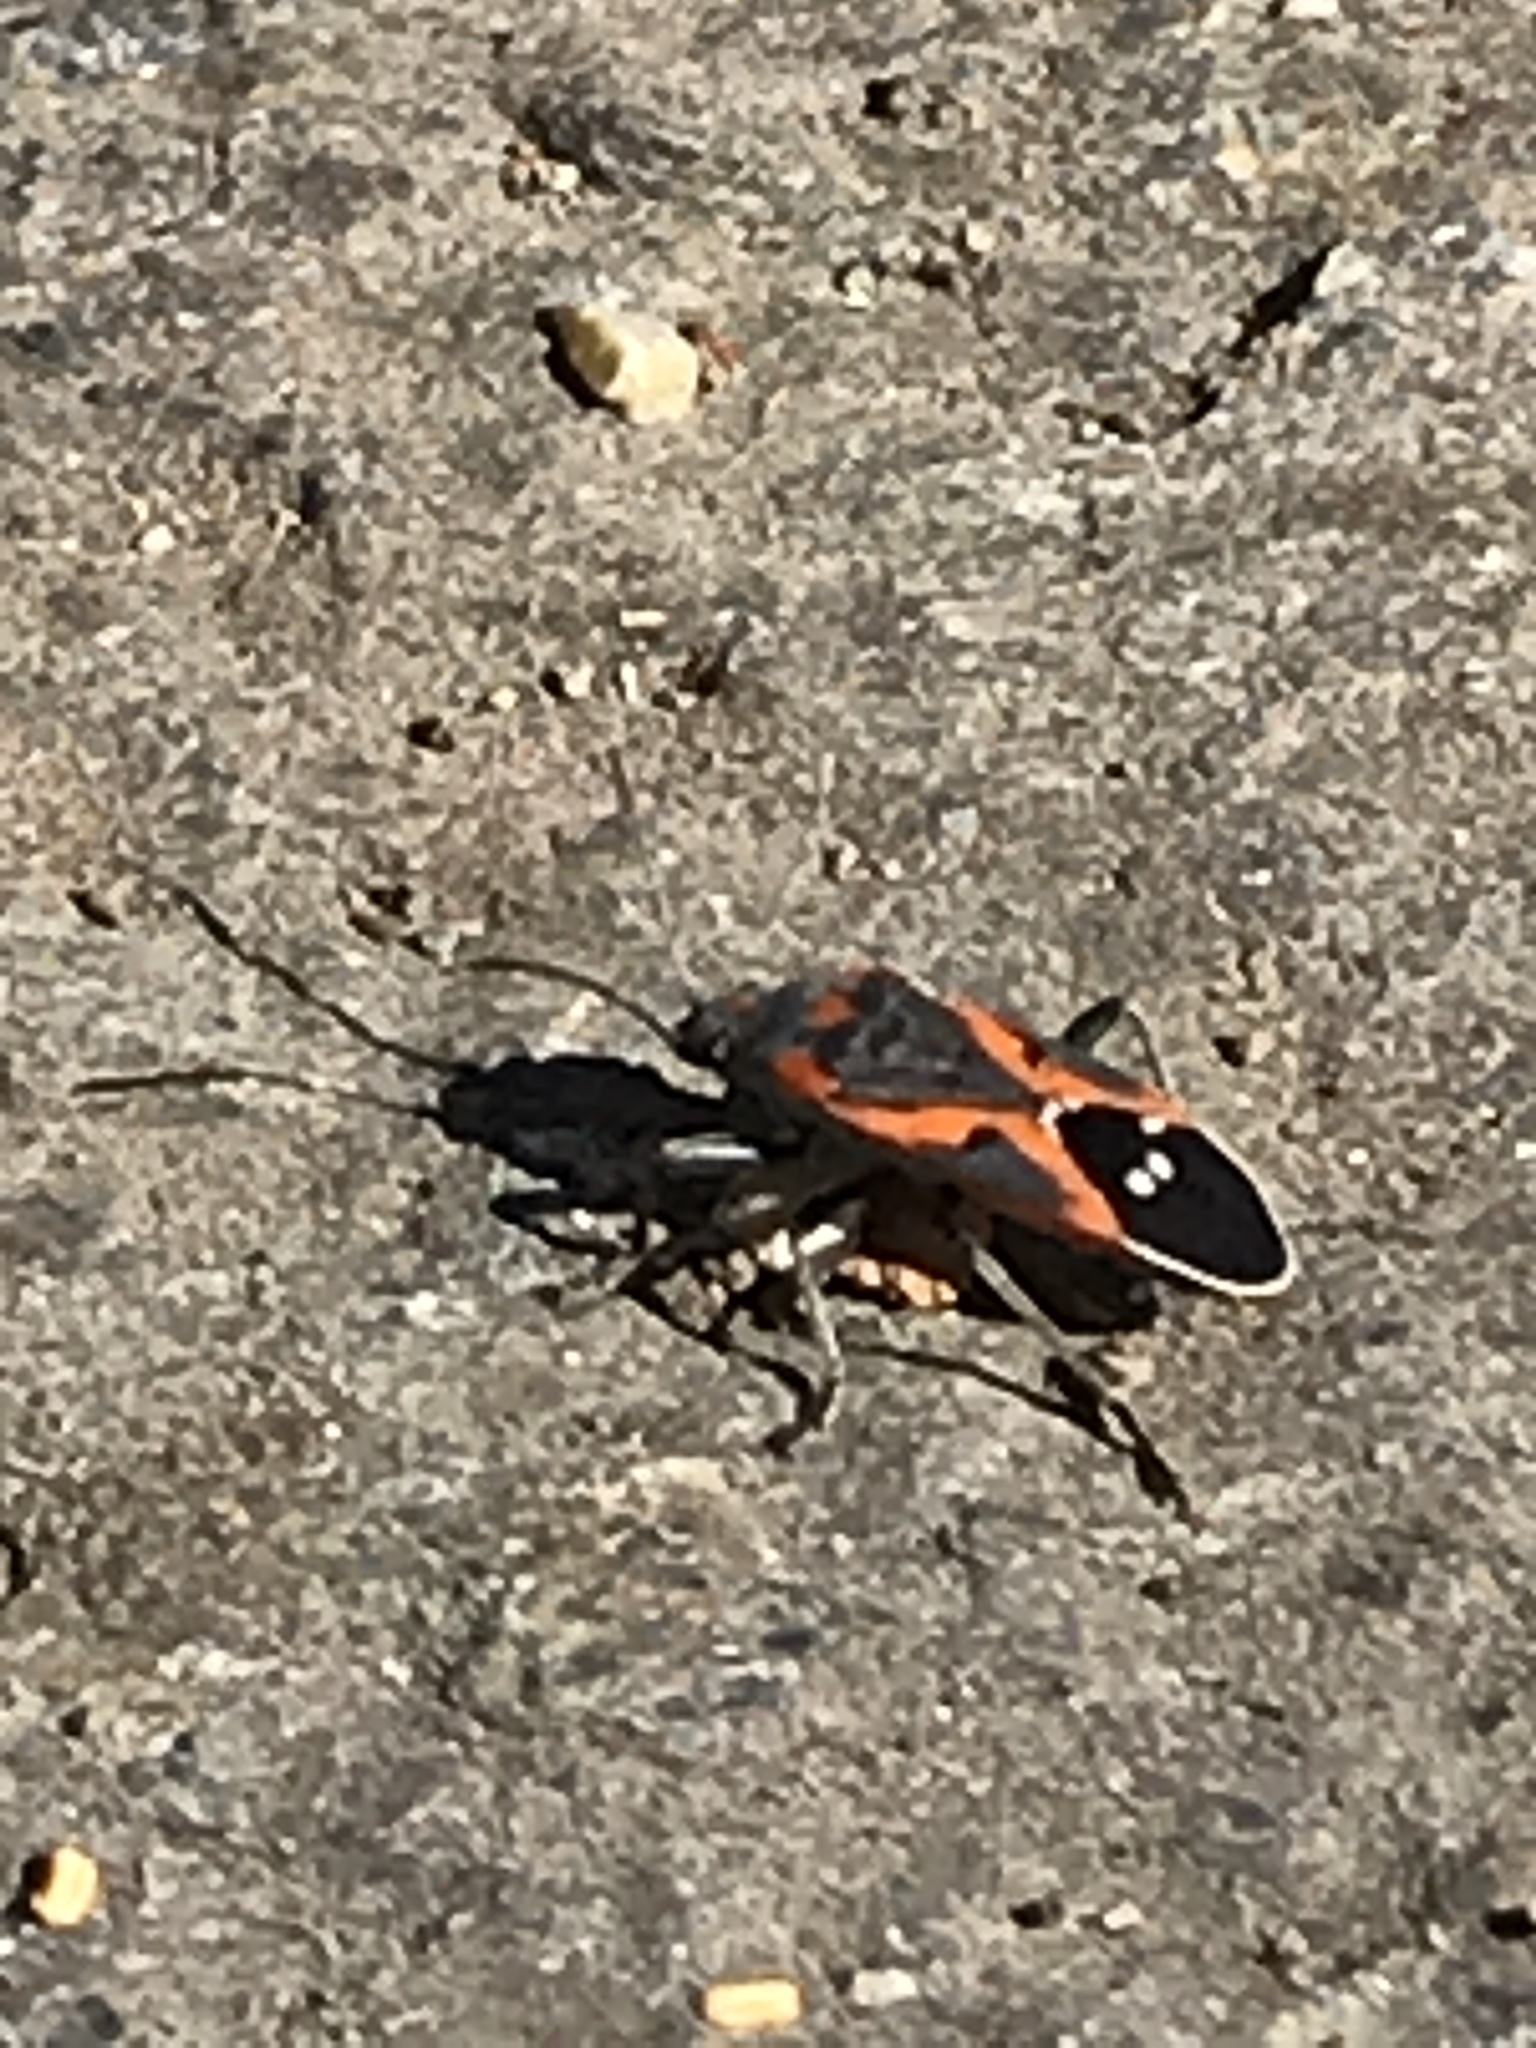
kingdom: Animalia
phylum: Arthropoda
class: Insecta
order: Hemiptera
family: Lygaeidae
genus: Lygaeus
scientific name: Lygaeus kalmii
